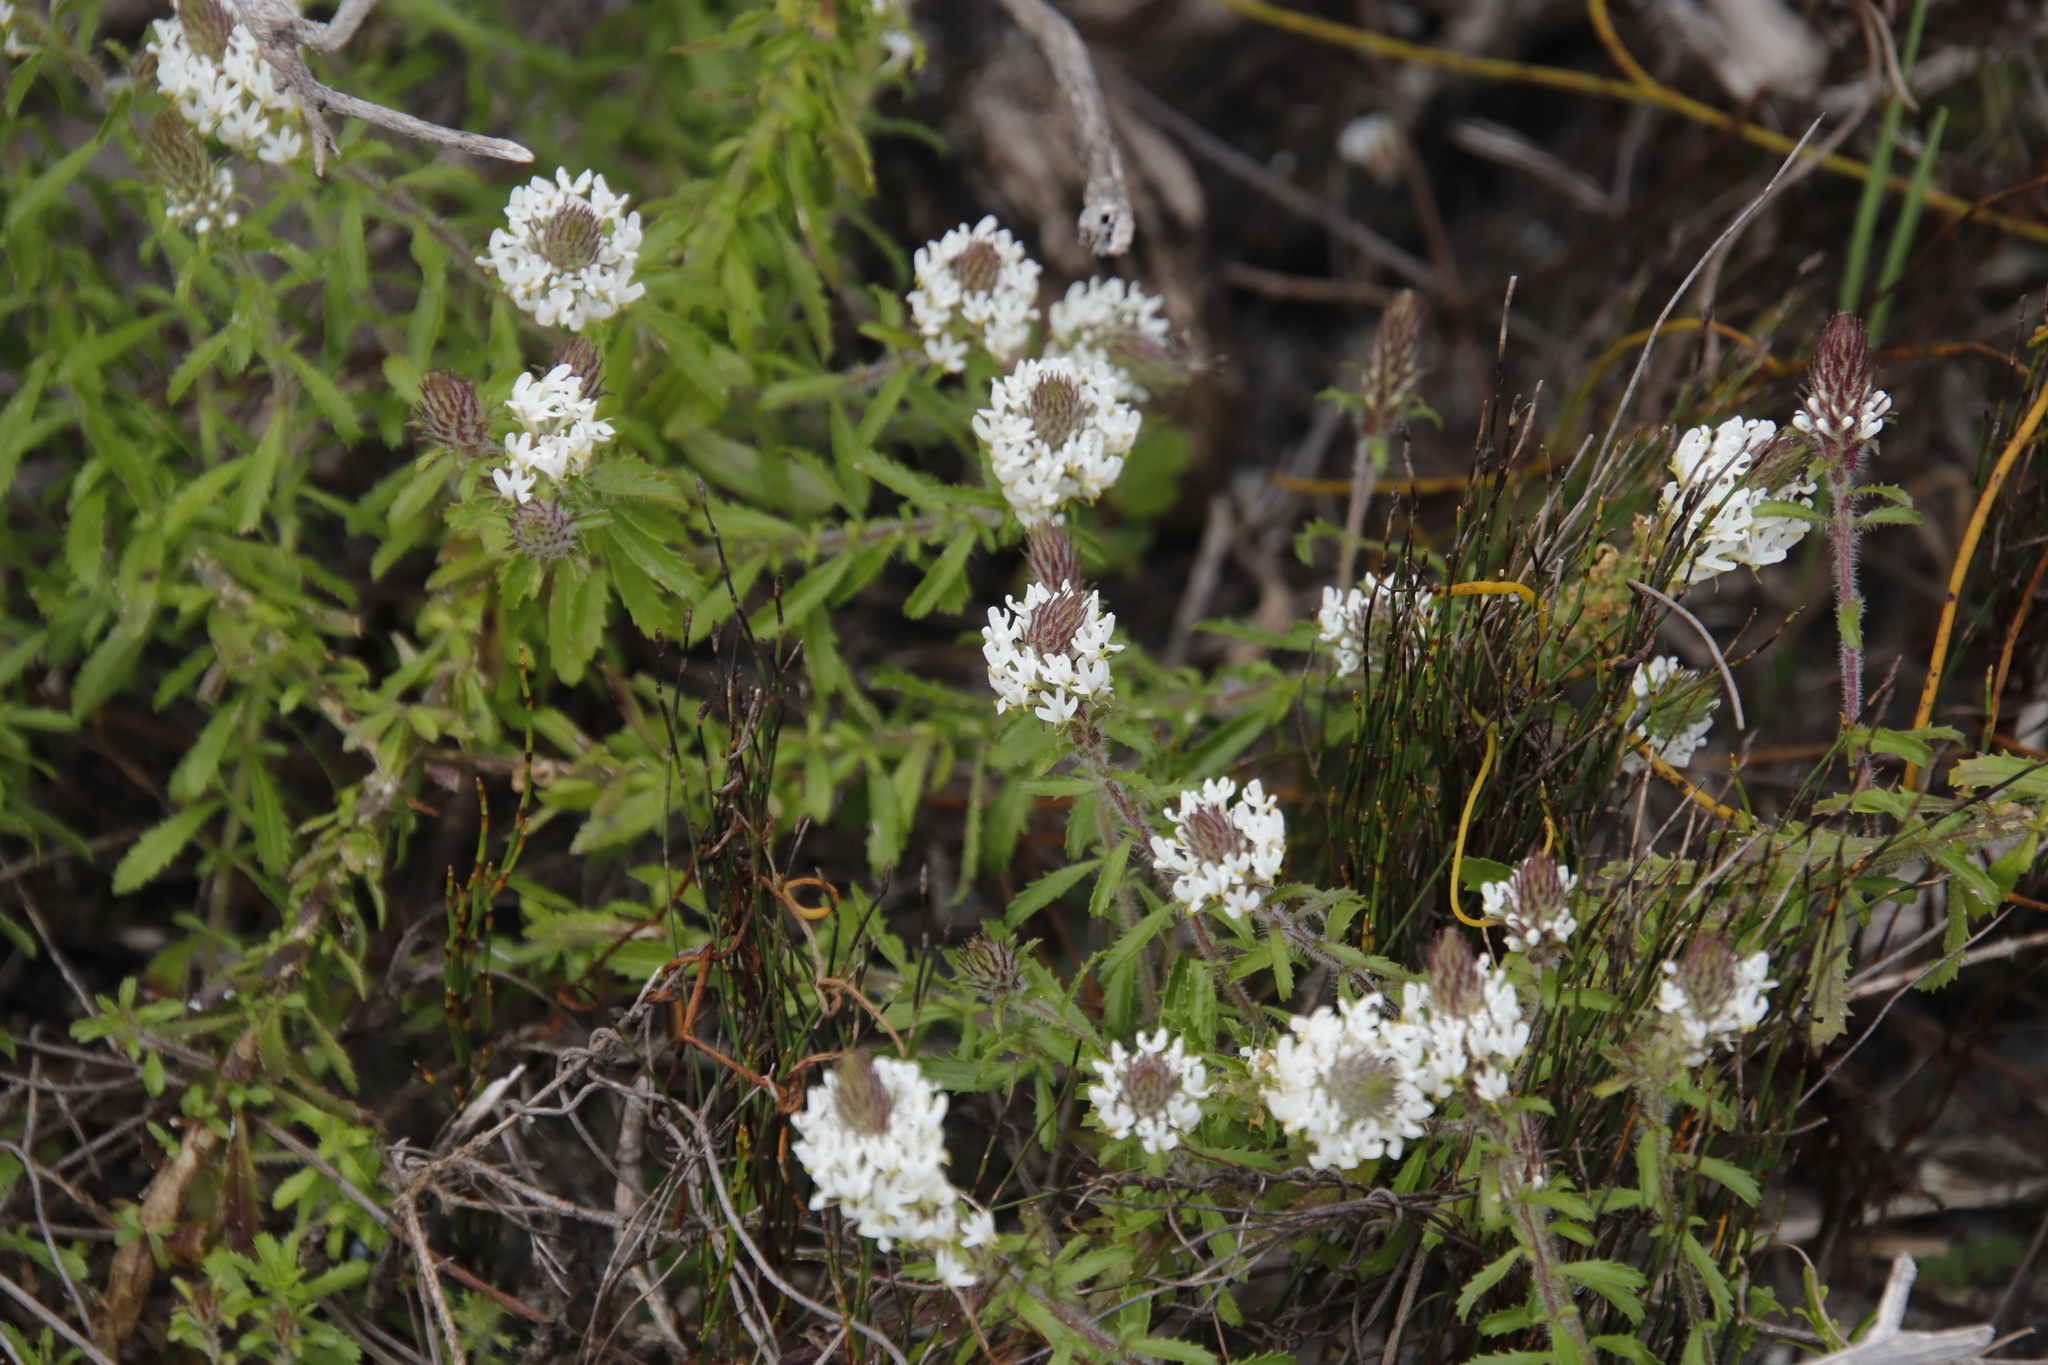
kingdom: Plantae
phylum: Tracheophyta
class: Magnoliopsida
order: Lamiales
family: Scrophulariaceae
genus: Dischisma
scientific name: Dischisma ciliatum
